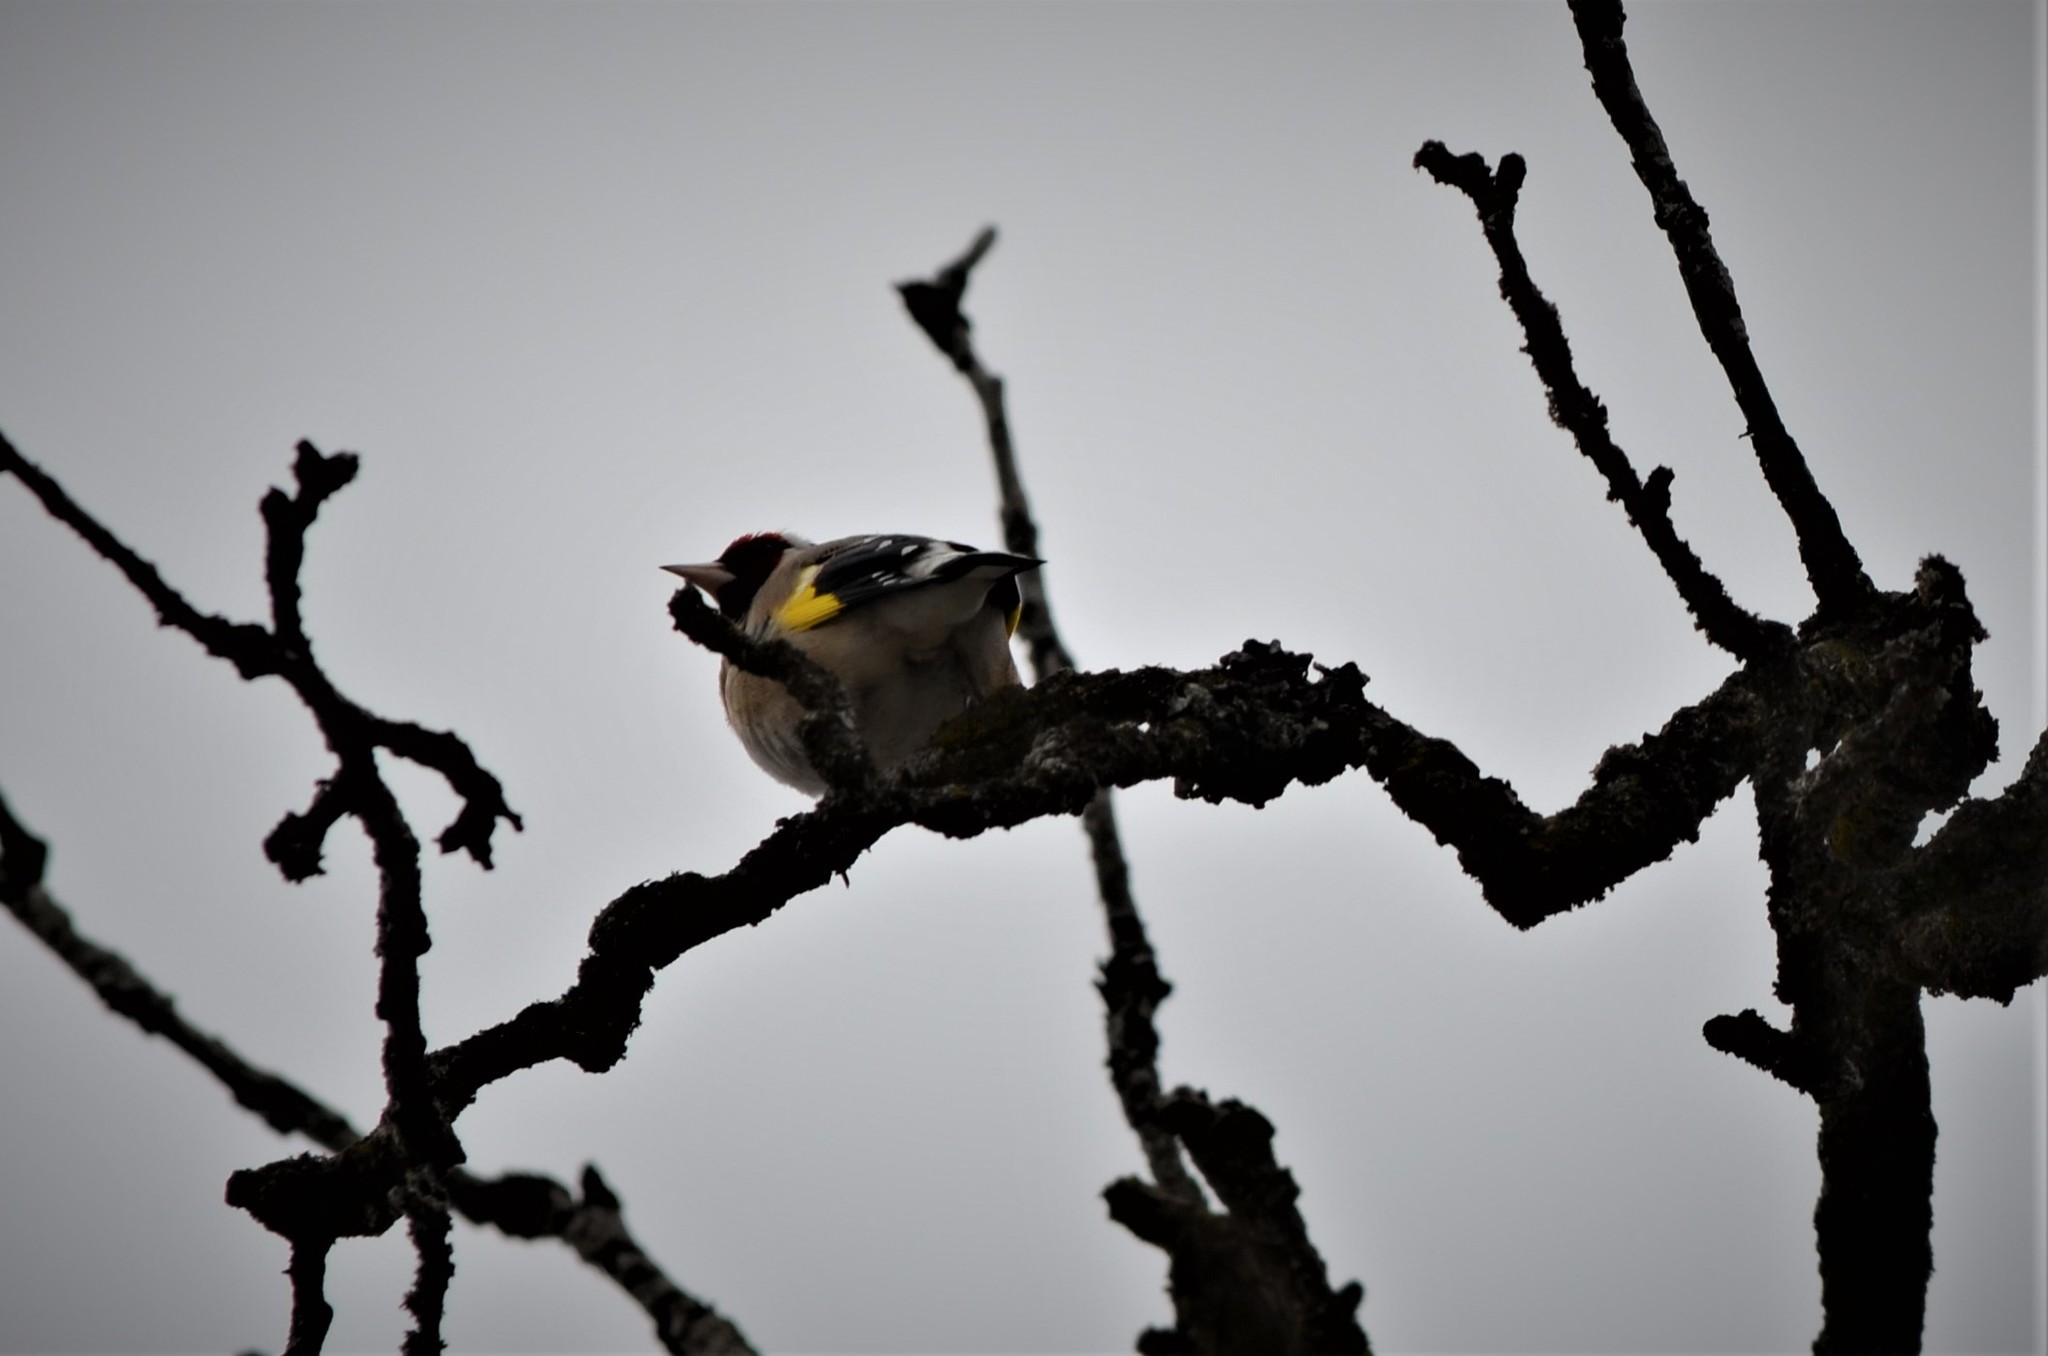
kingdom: Animalia
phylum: Chordata
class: Aves
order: Passeriformes
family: Fringillidae
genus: Carduelis
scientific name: Carduelis carduelis
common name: European goldfinch
